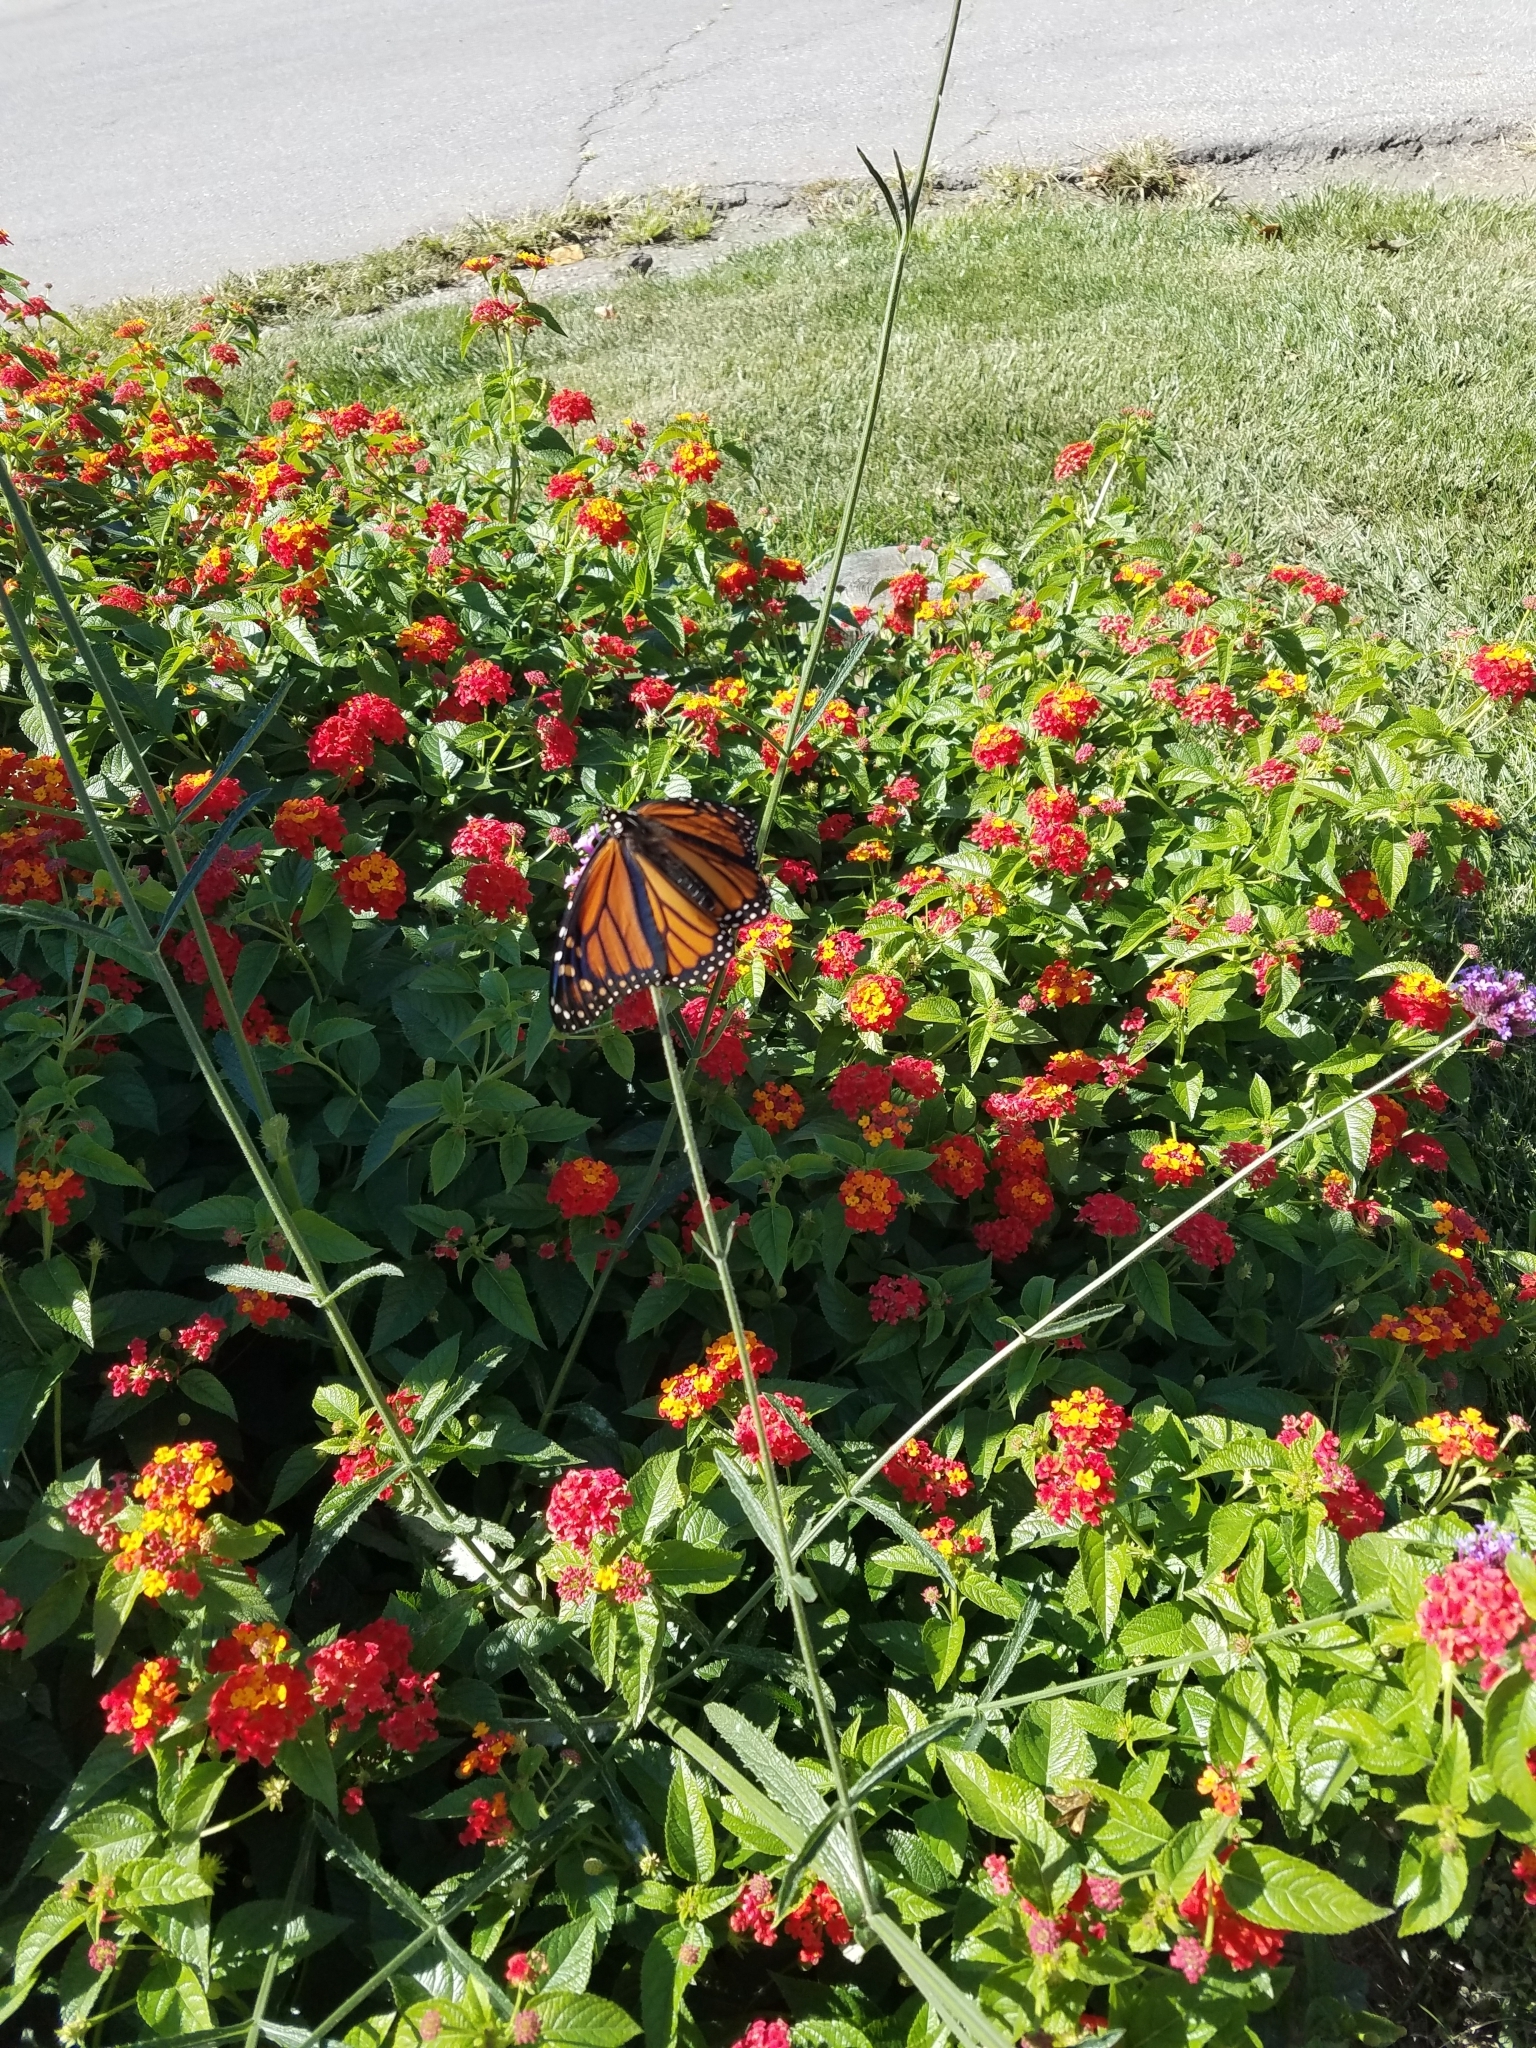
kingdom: Animalia
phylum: Arthropoda
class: Insecta
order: Lepidoptera
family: Nymphalidae
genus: Danaus
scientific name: Danaus plexippus
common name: Monarch
